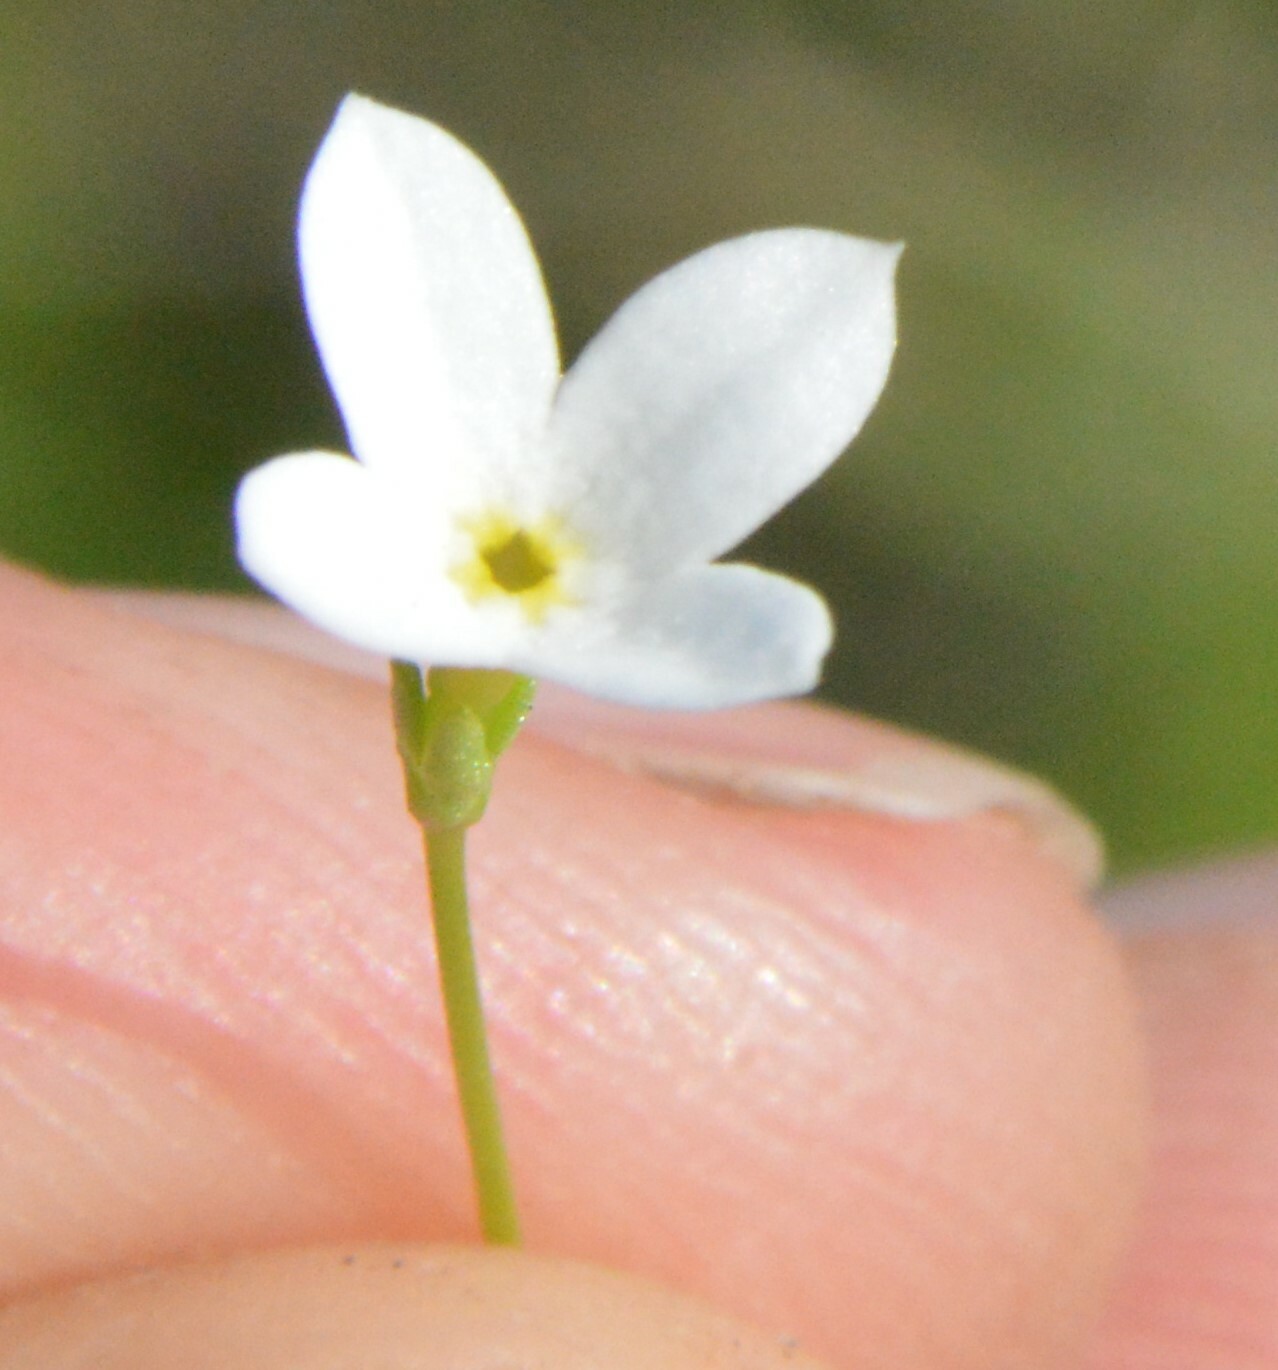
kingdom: Plantae
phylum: Tracheophyta
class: Magnoliopsida
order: Gentianales
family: Rubiaceae
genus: Houstonia
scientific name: Houstonia pusilla
